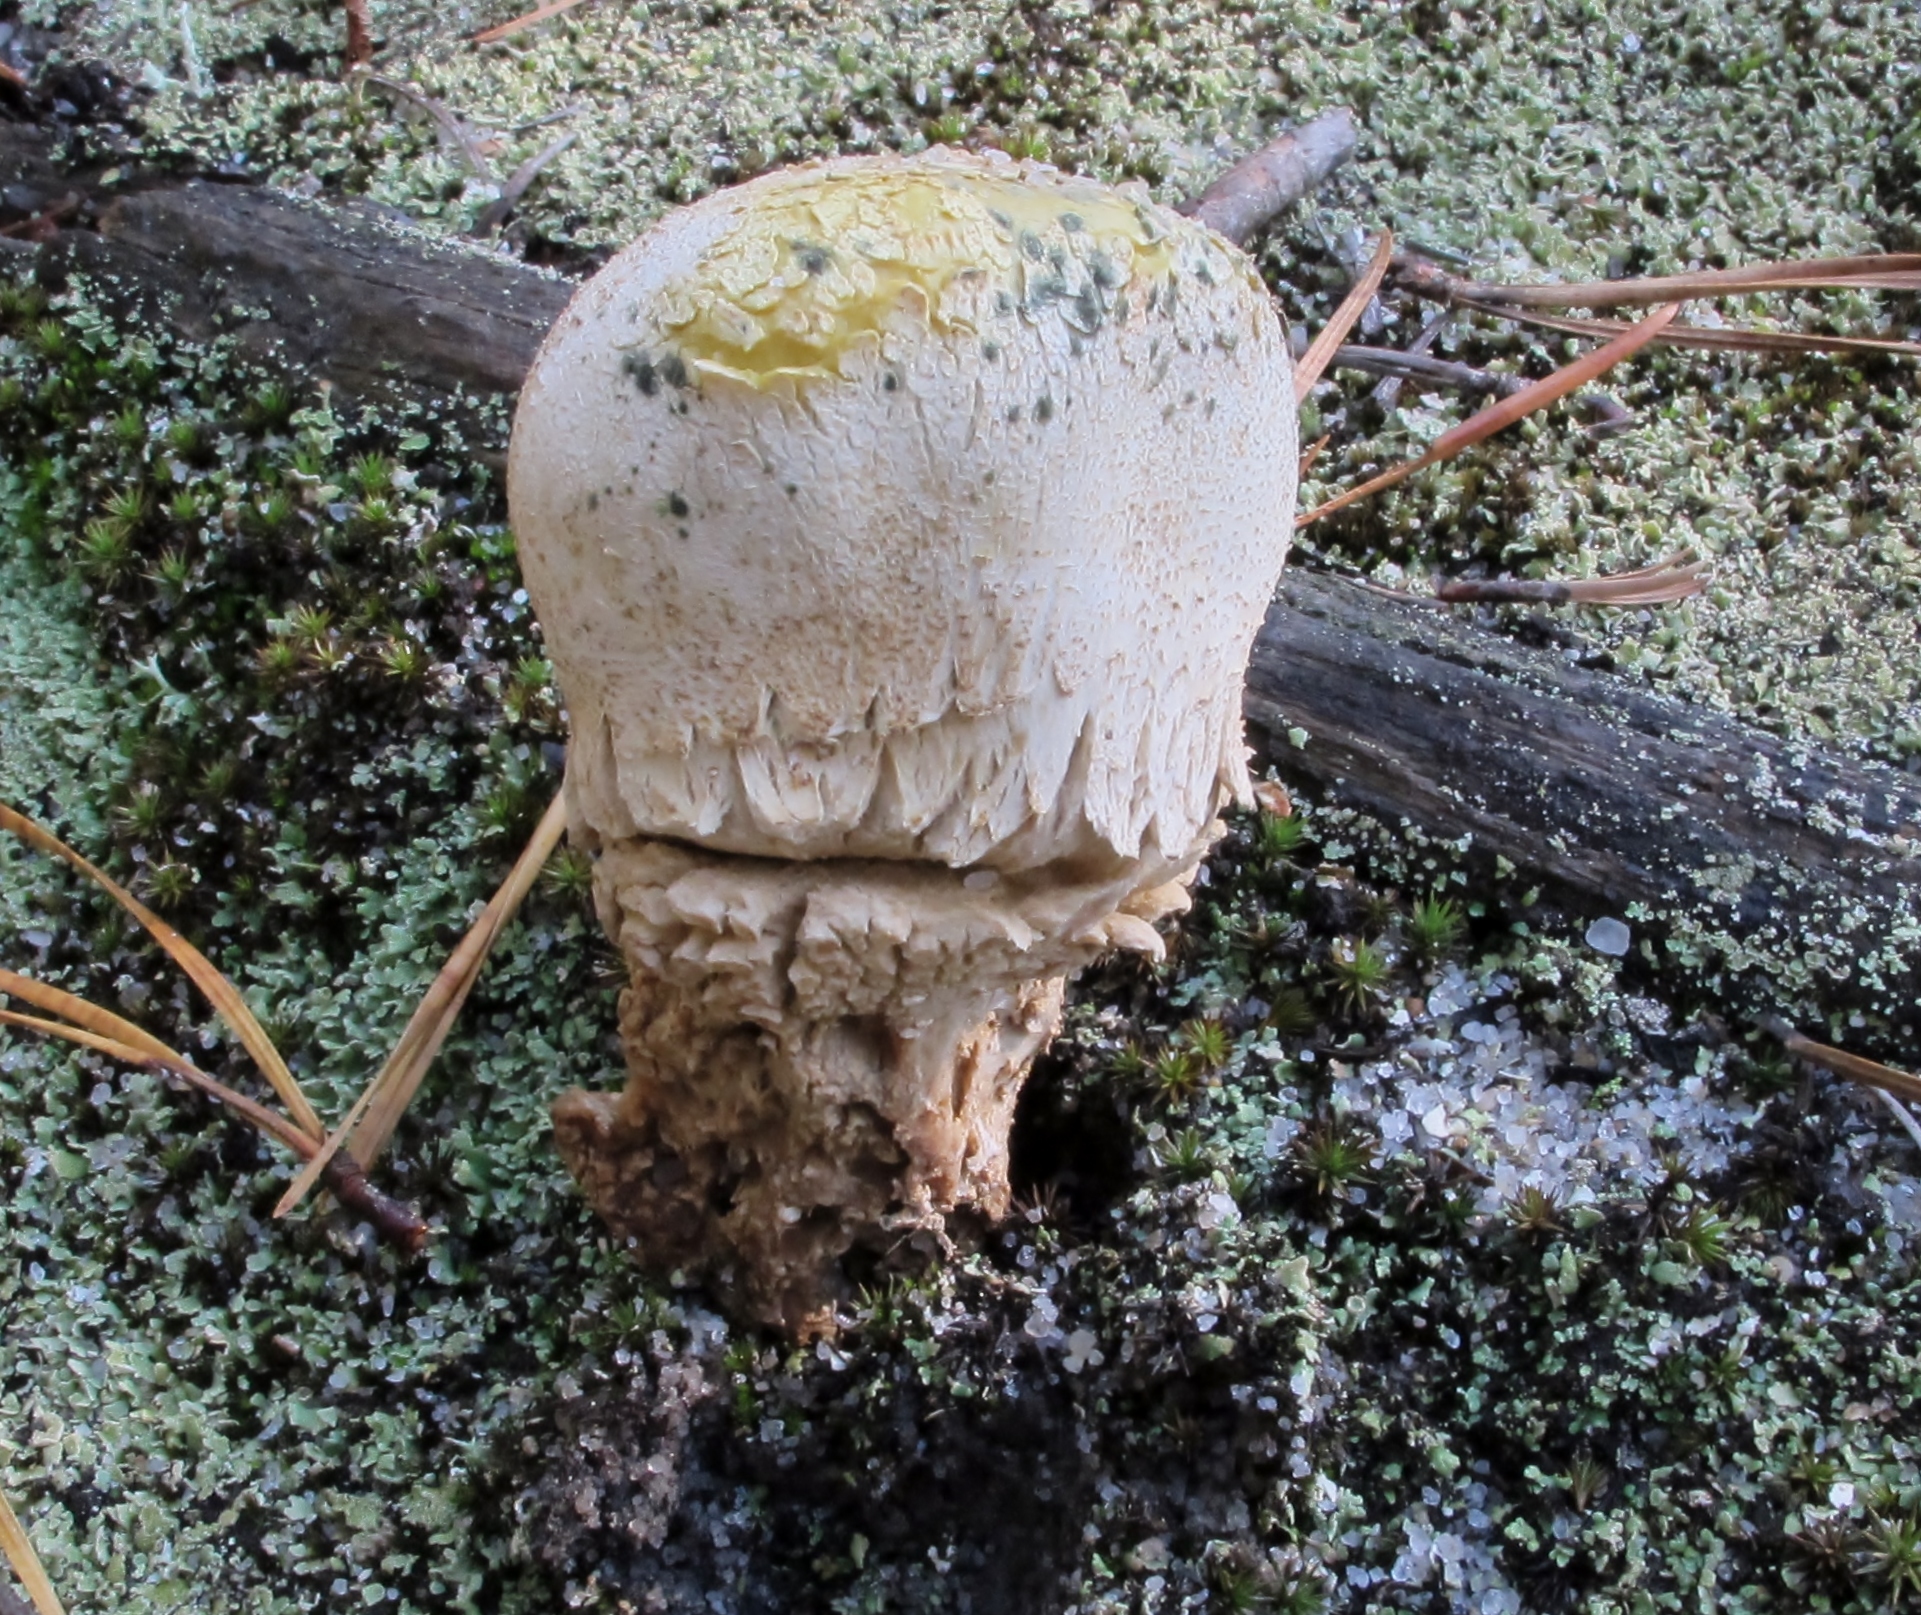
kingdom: Fungi
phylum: Basidiomycota
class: Agaricomycetes
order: Boletales
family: Sclerodermataceae
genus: Scleroderma
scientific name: Scleroderma meridionale
